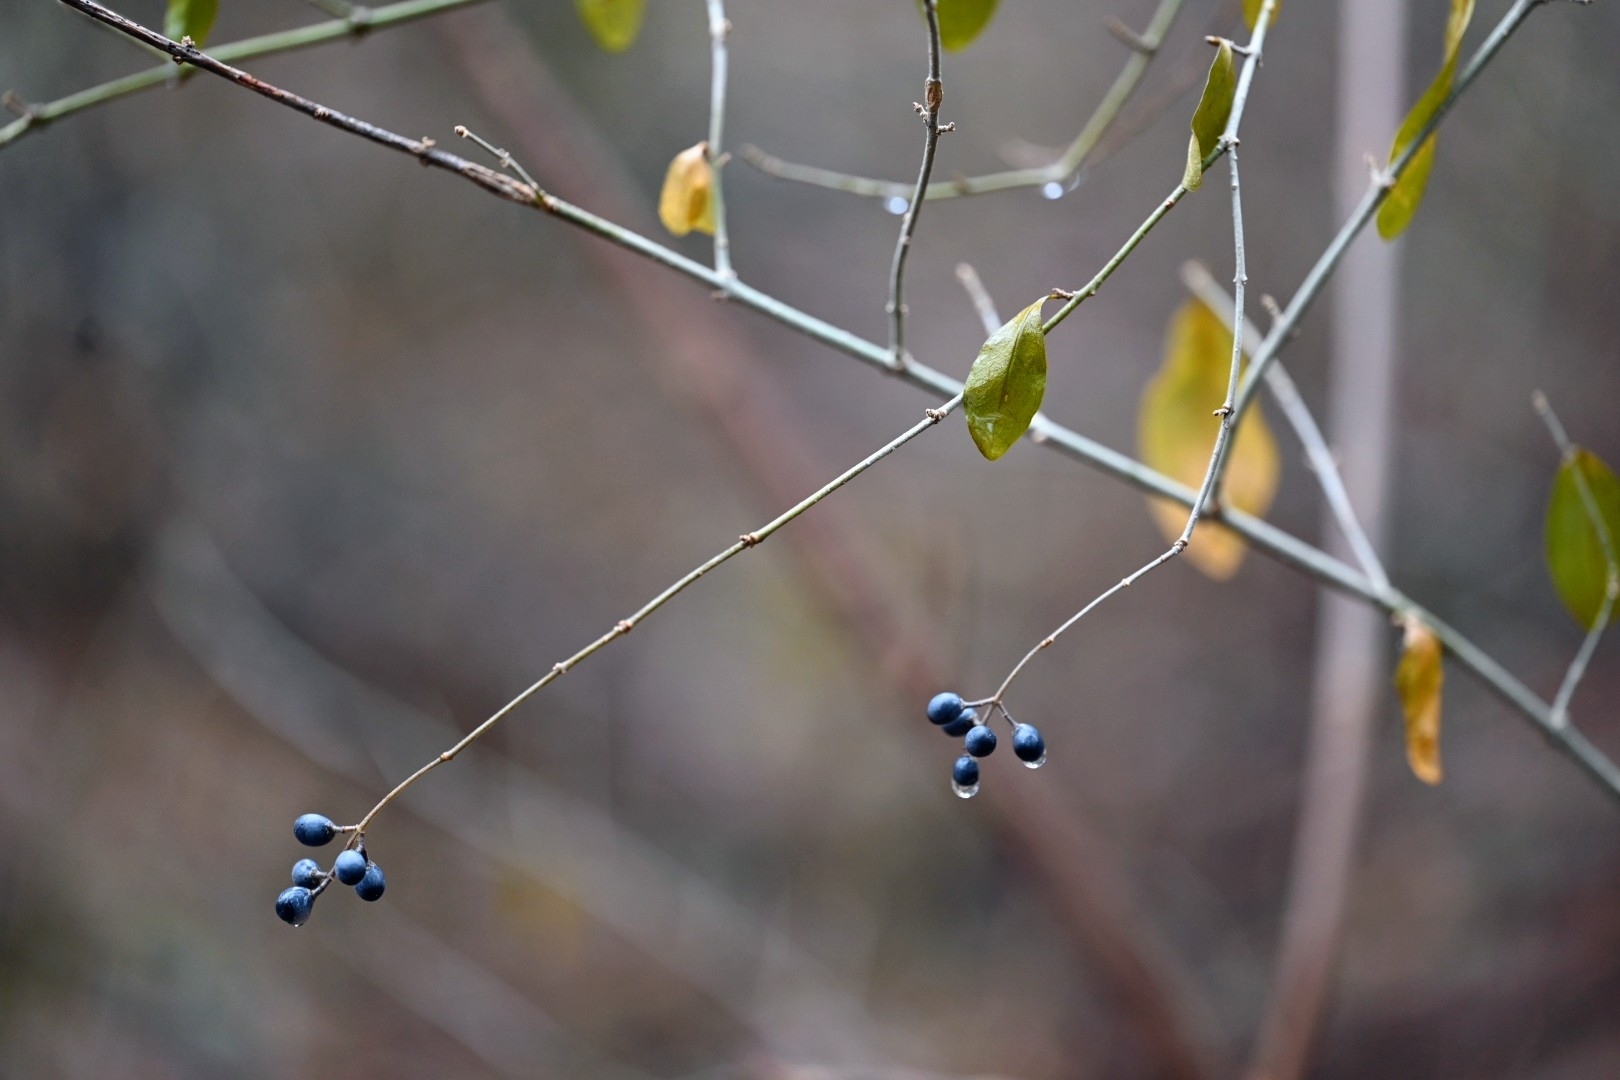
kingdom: Plantae
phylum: Tracheophyta
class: Magnoliopsida
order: Lamiales
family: Oleaceae
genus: Ligustrum
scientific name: Ligustrum vulgare
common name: Wild privet
